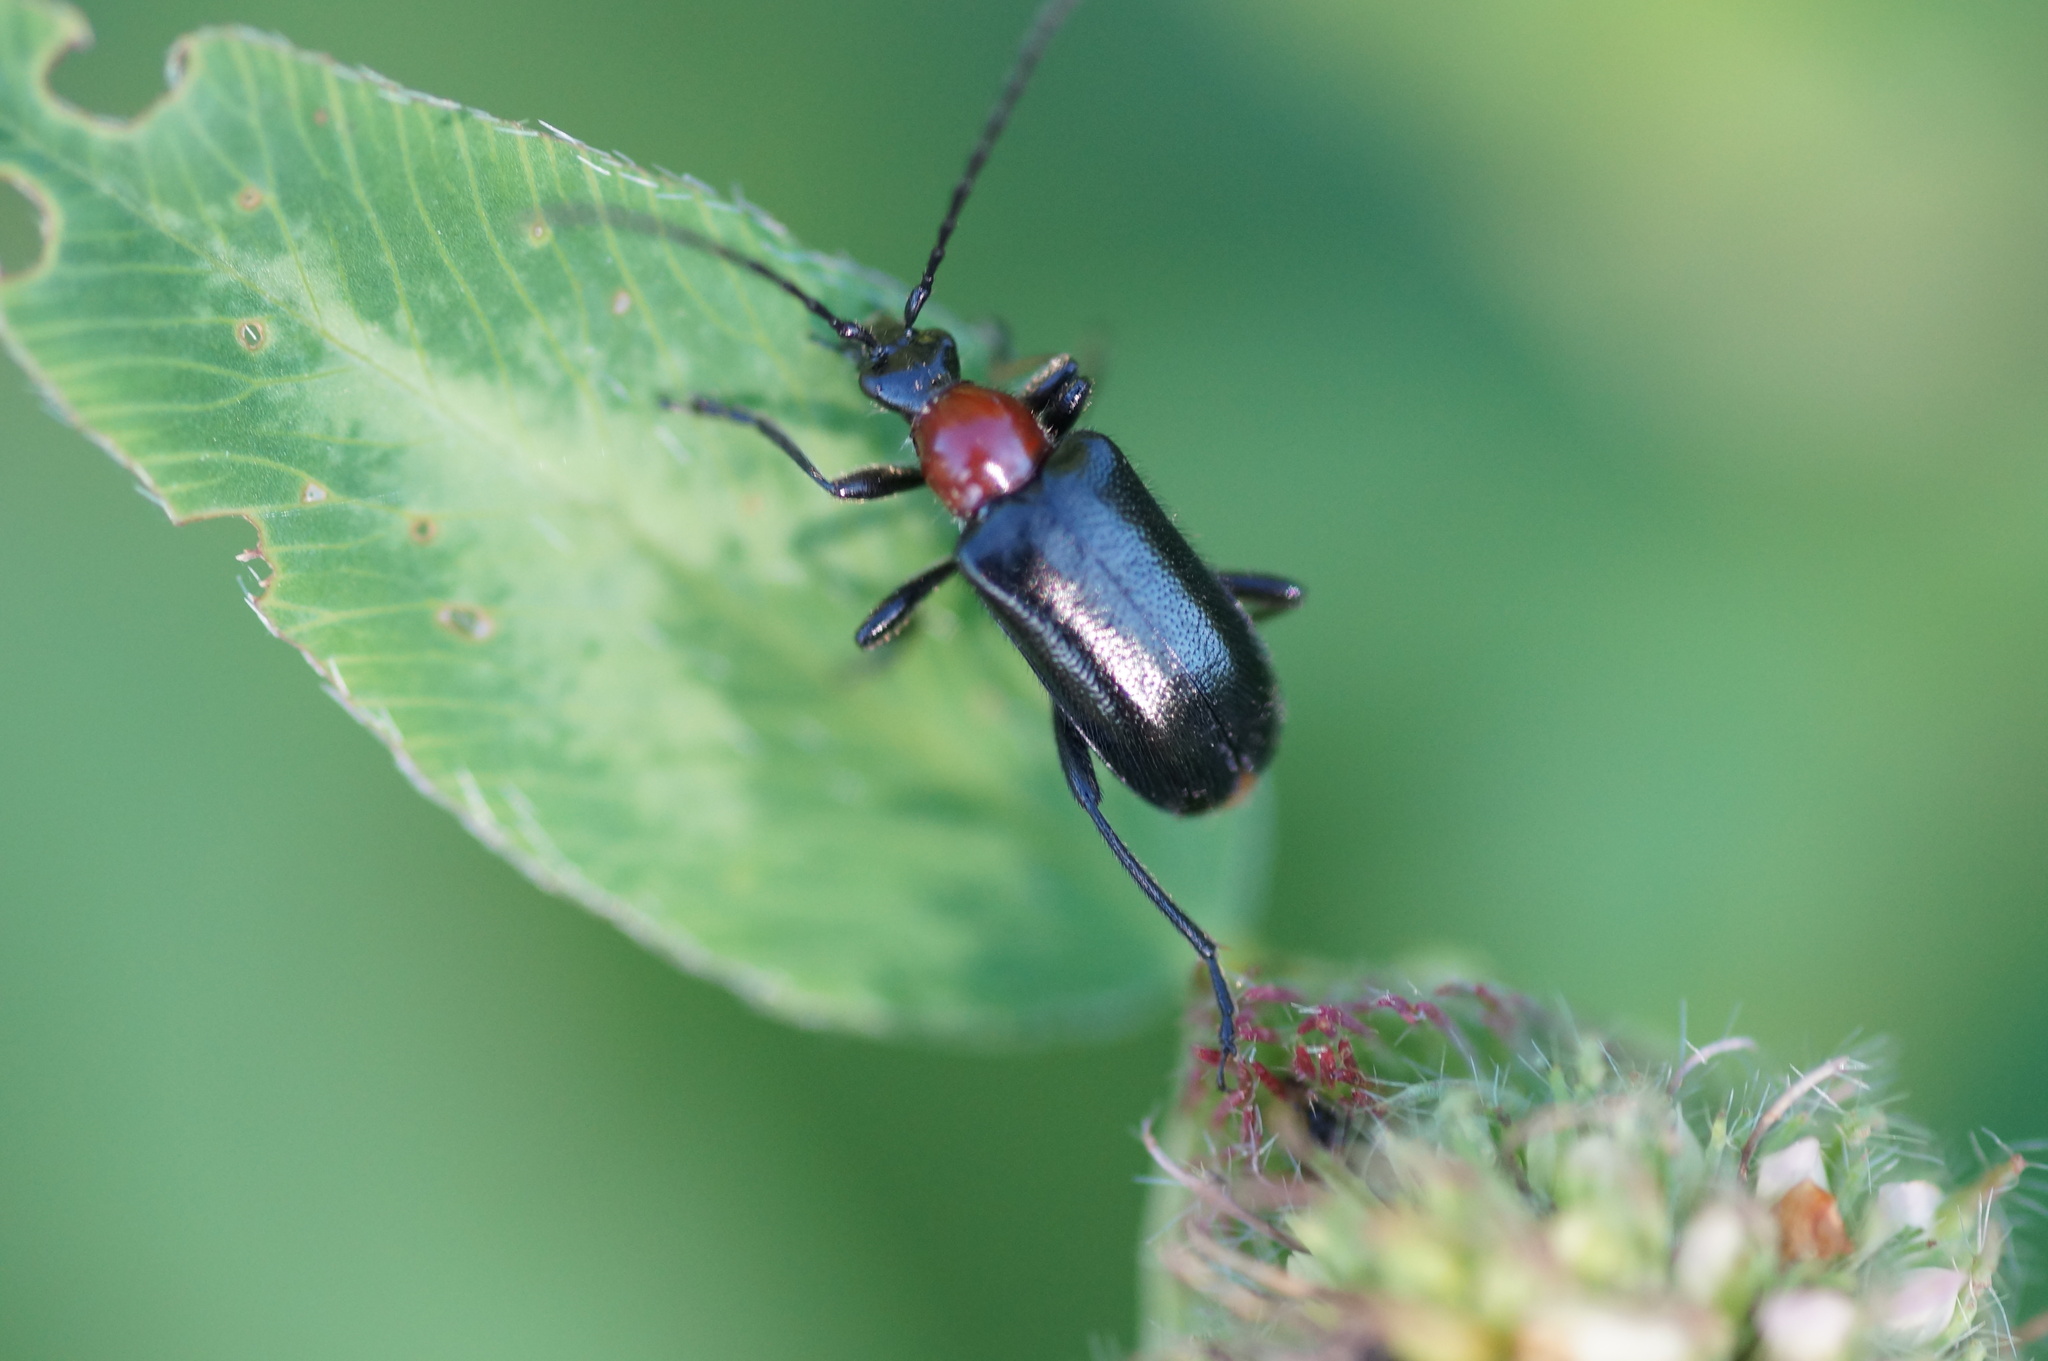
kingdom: Animalia
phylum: Arthropoda
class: Insecta
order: Coleoptera
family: Cerambycidae
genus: Dinoptera
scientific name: Dinoptera collaris
